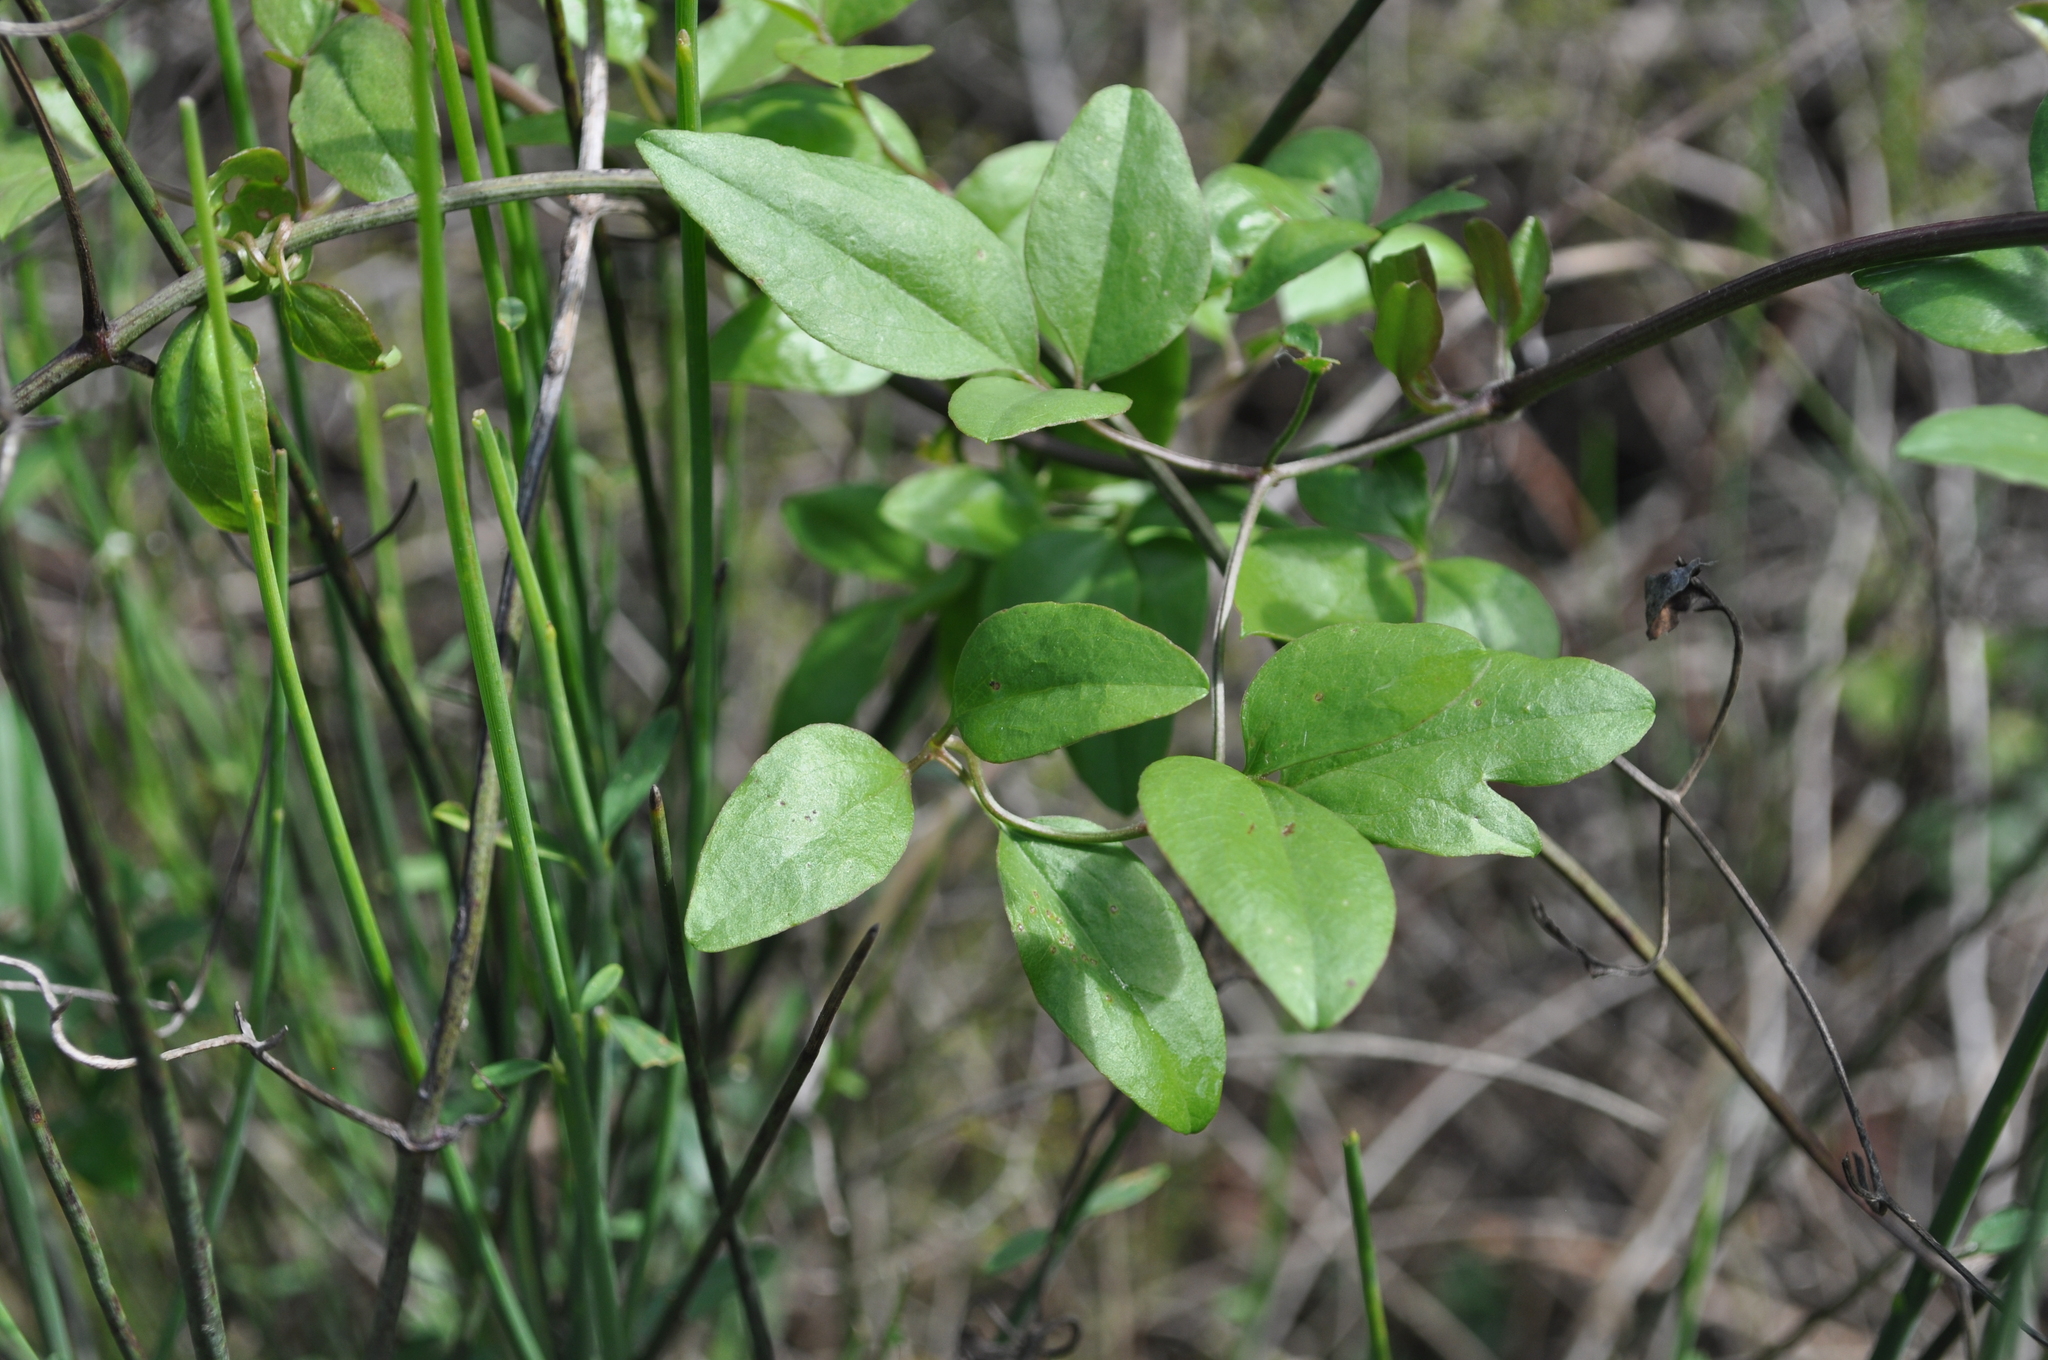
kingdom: Plantae
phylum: Tracheophyta
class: Magnoliopsida
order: Ranunculales
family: Ranunculaceae
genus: Clematis
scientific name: Clematis flammula
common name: Virgin's-bower
